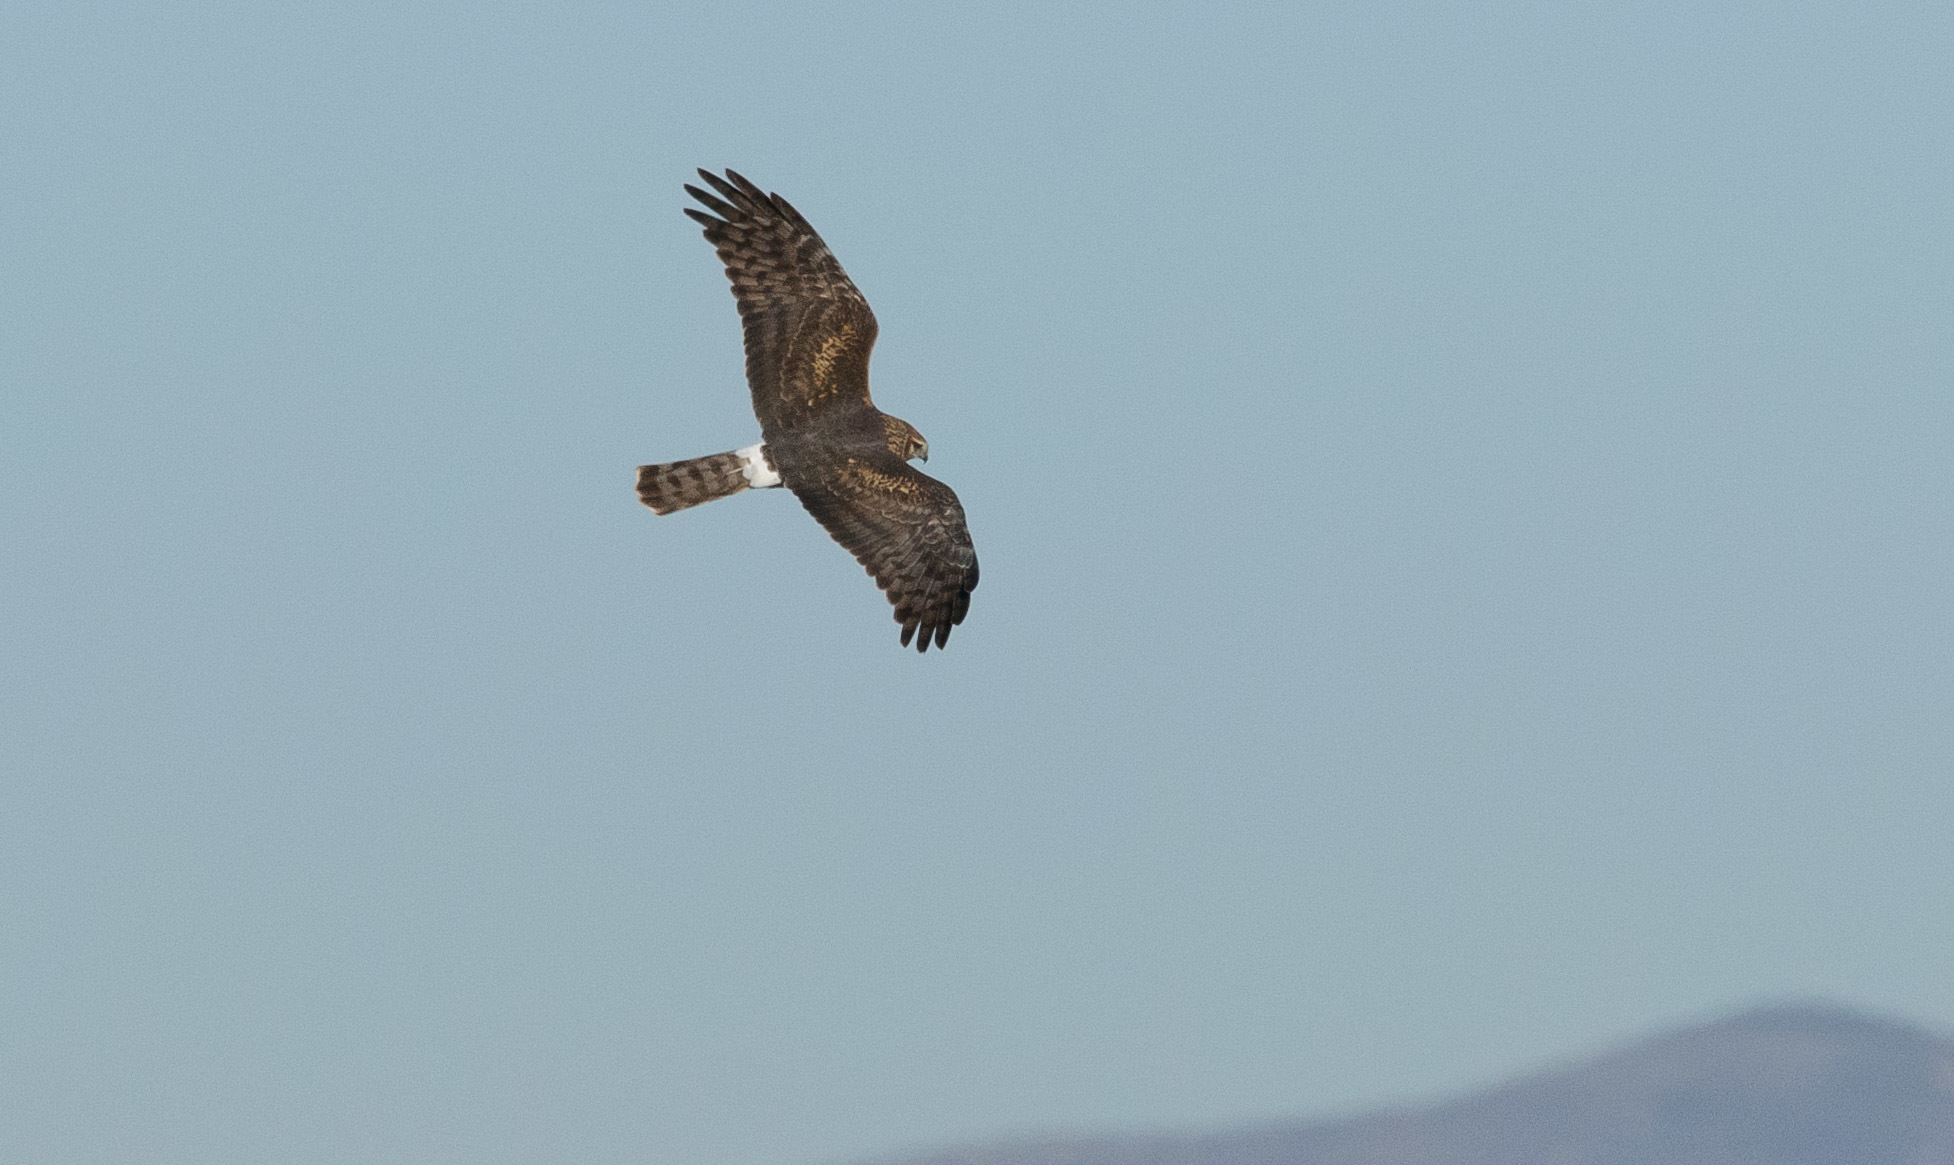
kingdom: Animalia
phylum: Chordata
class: Aves
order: Accipitriformes
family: Accipitridae
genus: Circus
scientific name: Circus cyaneus
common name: Hen harrier
